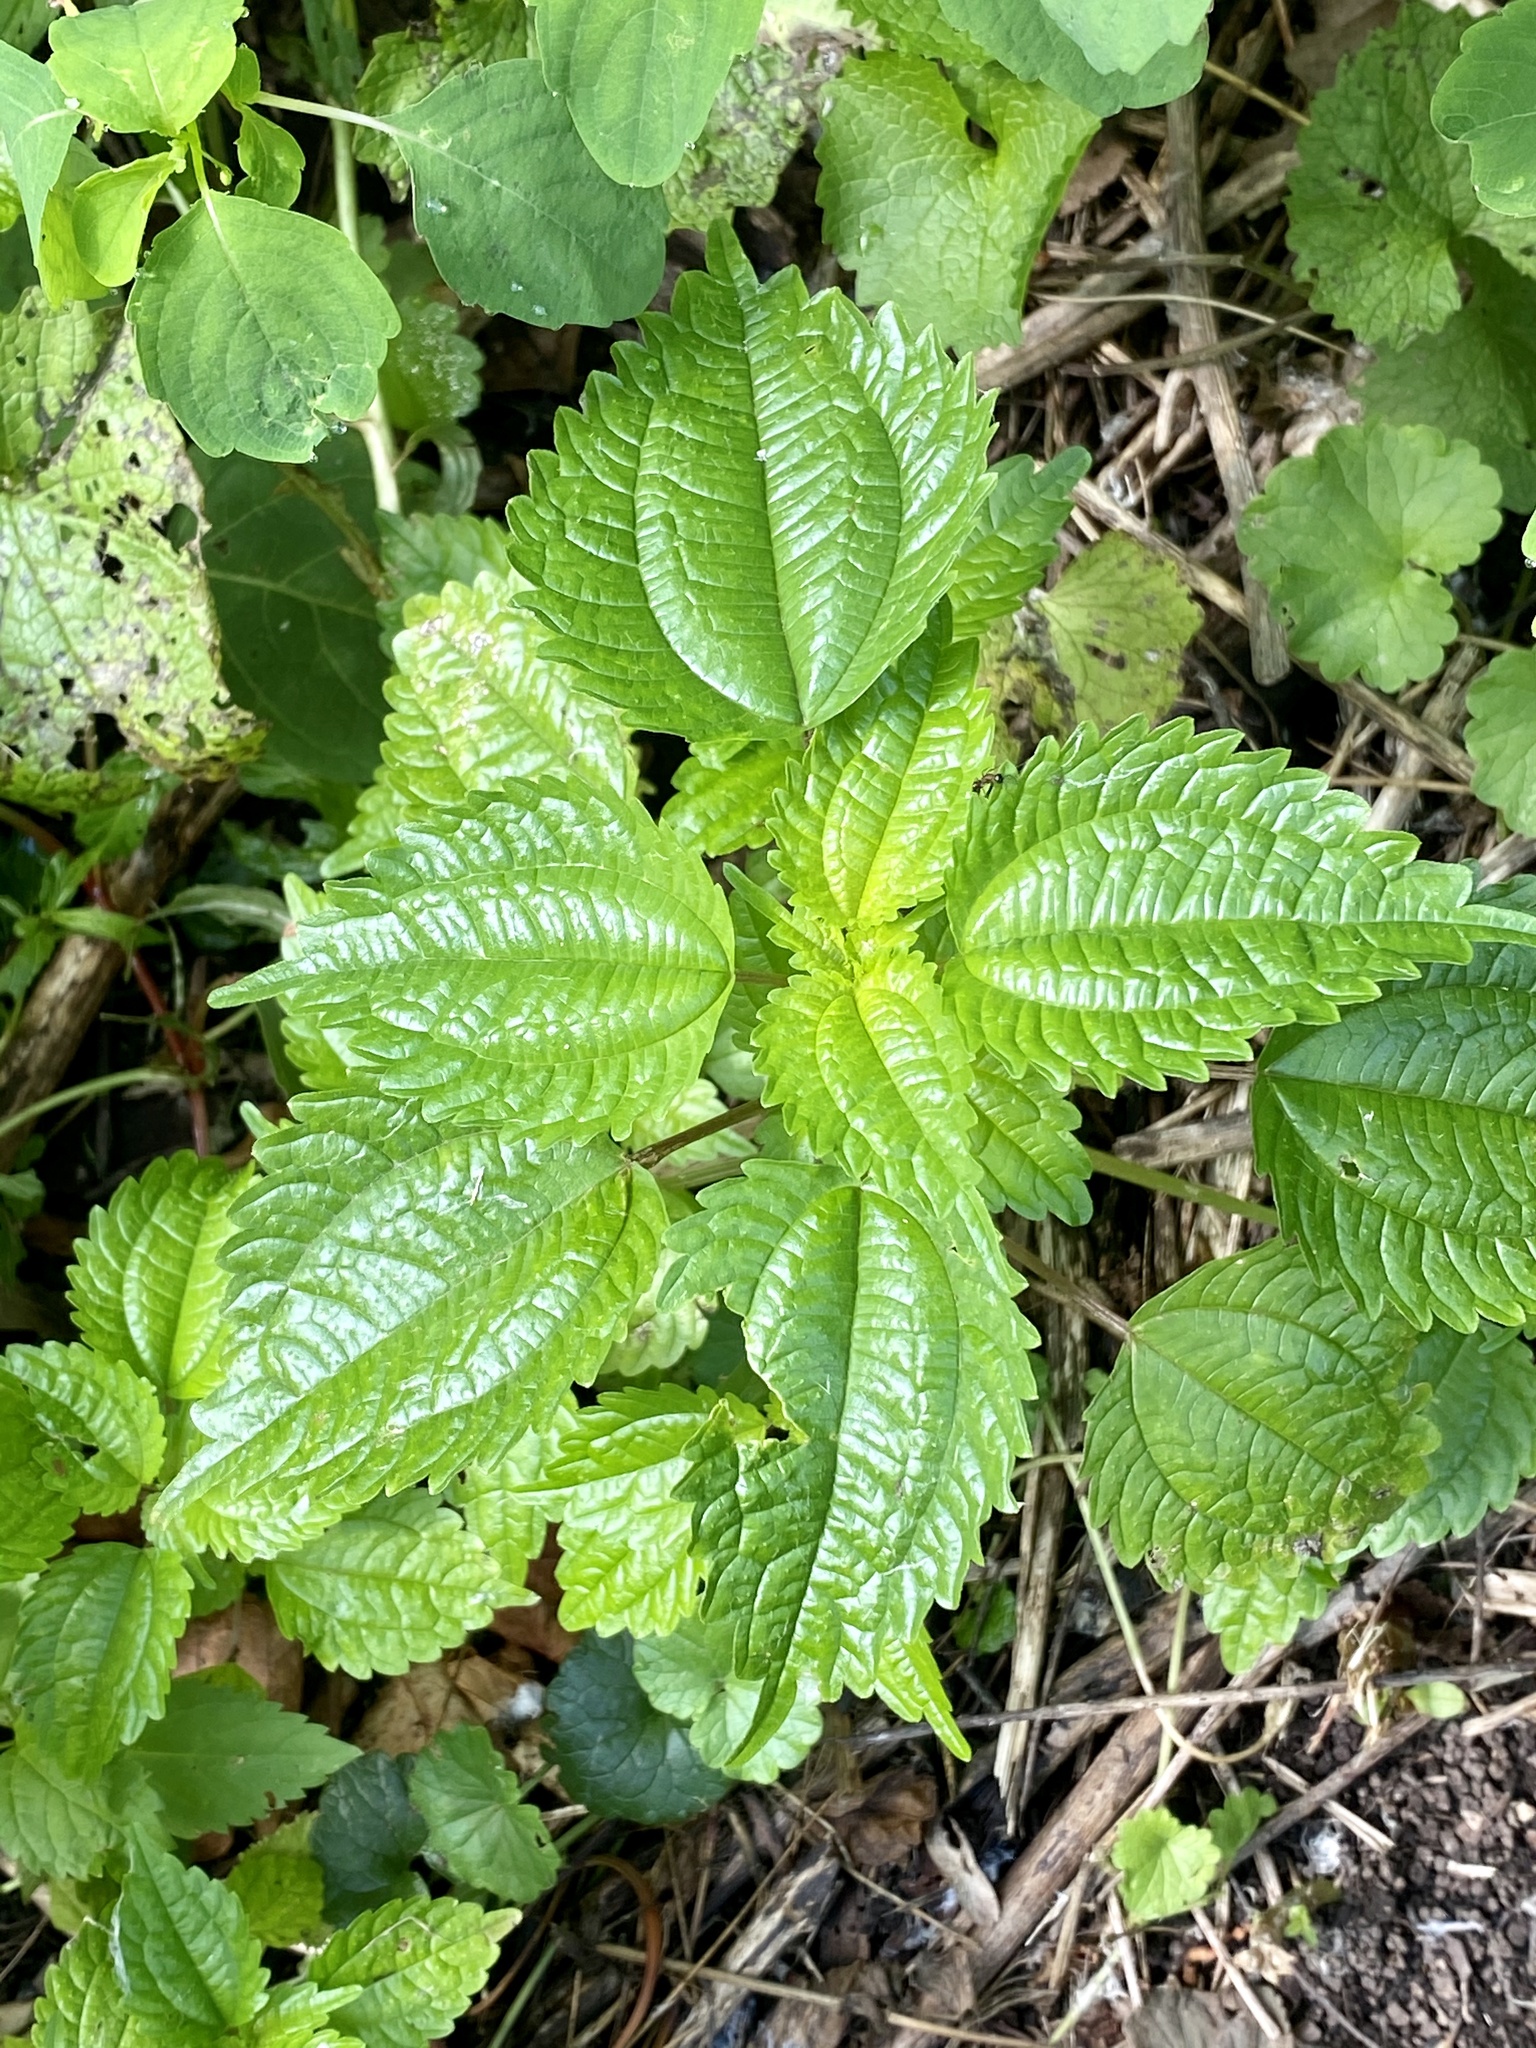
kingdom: Plantae
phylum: Tracheophyta
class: Magnoliopsida
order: Rosales
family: Urticaceae
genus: Pilea
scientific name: Pilea pumila
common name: Clearweed
